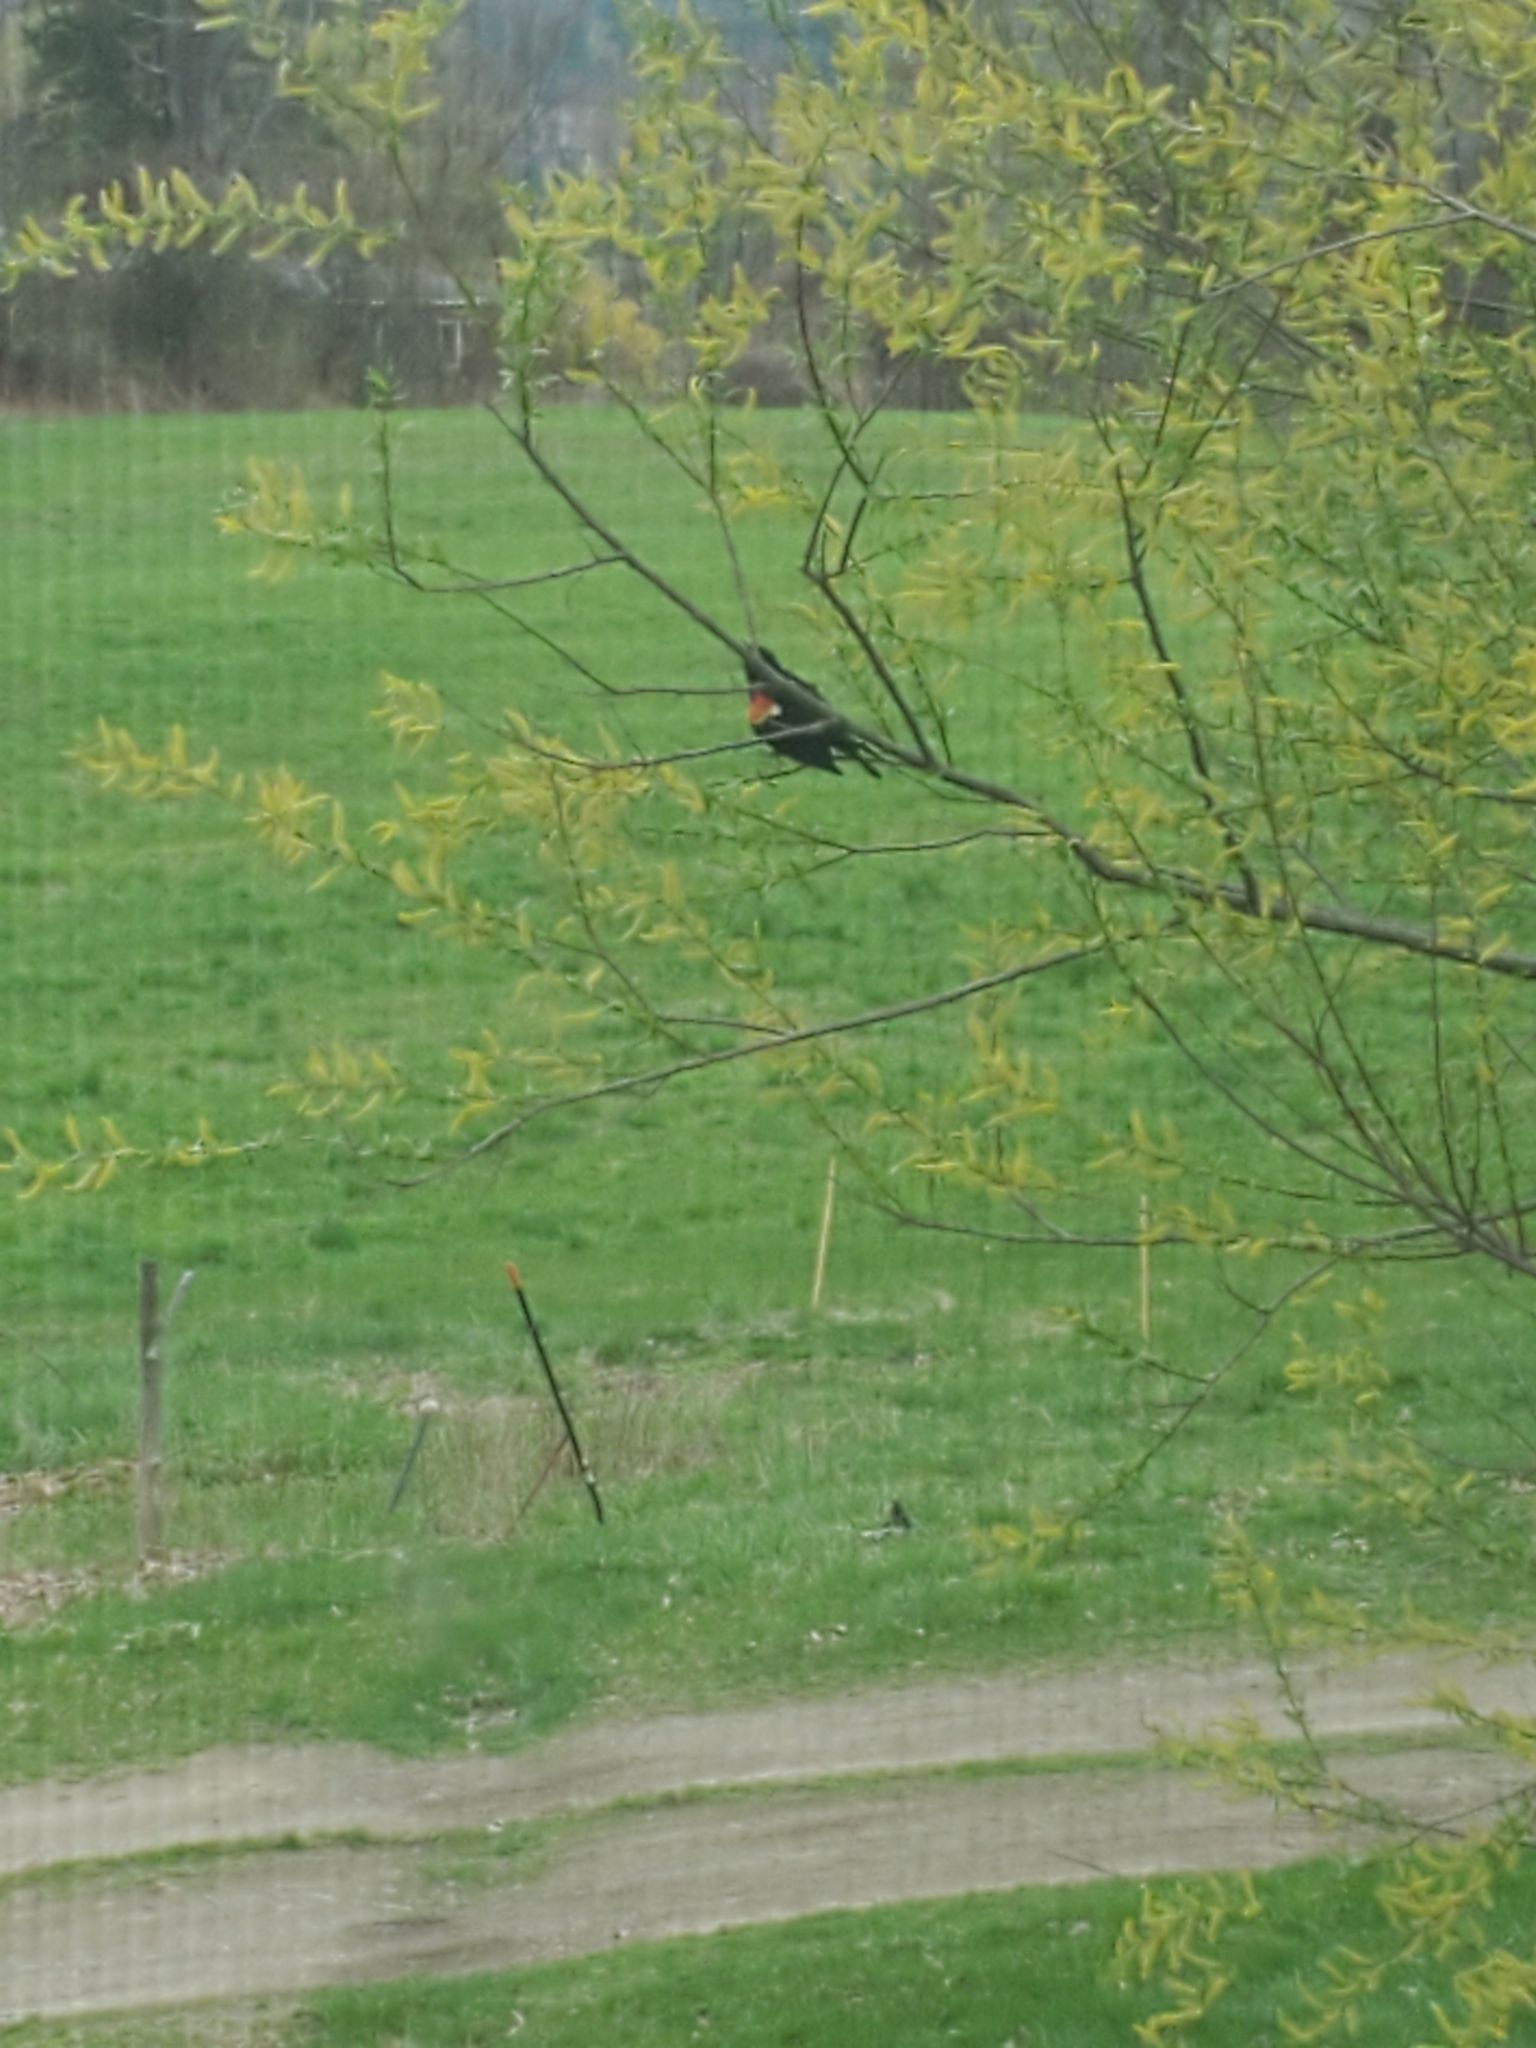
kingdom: Animalia
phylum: Chordata
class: Aves
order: Passeriformes
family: Icteridae
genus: Agelaius
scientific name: Agelaius phoeniceus
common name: Red-winged blackbird
